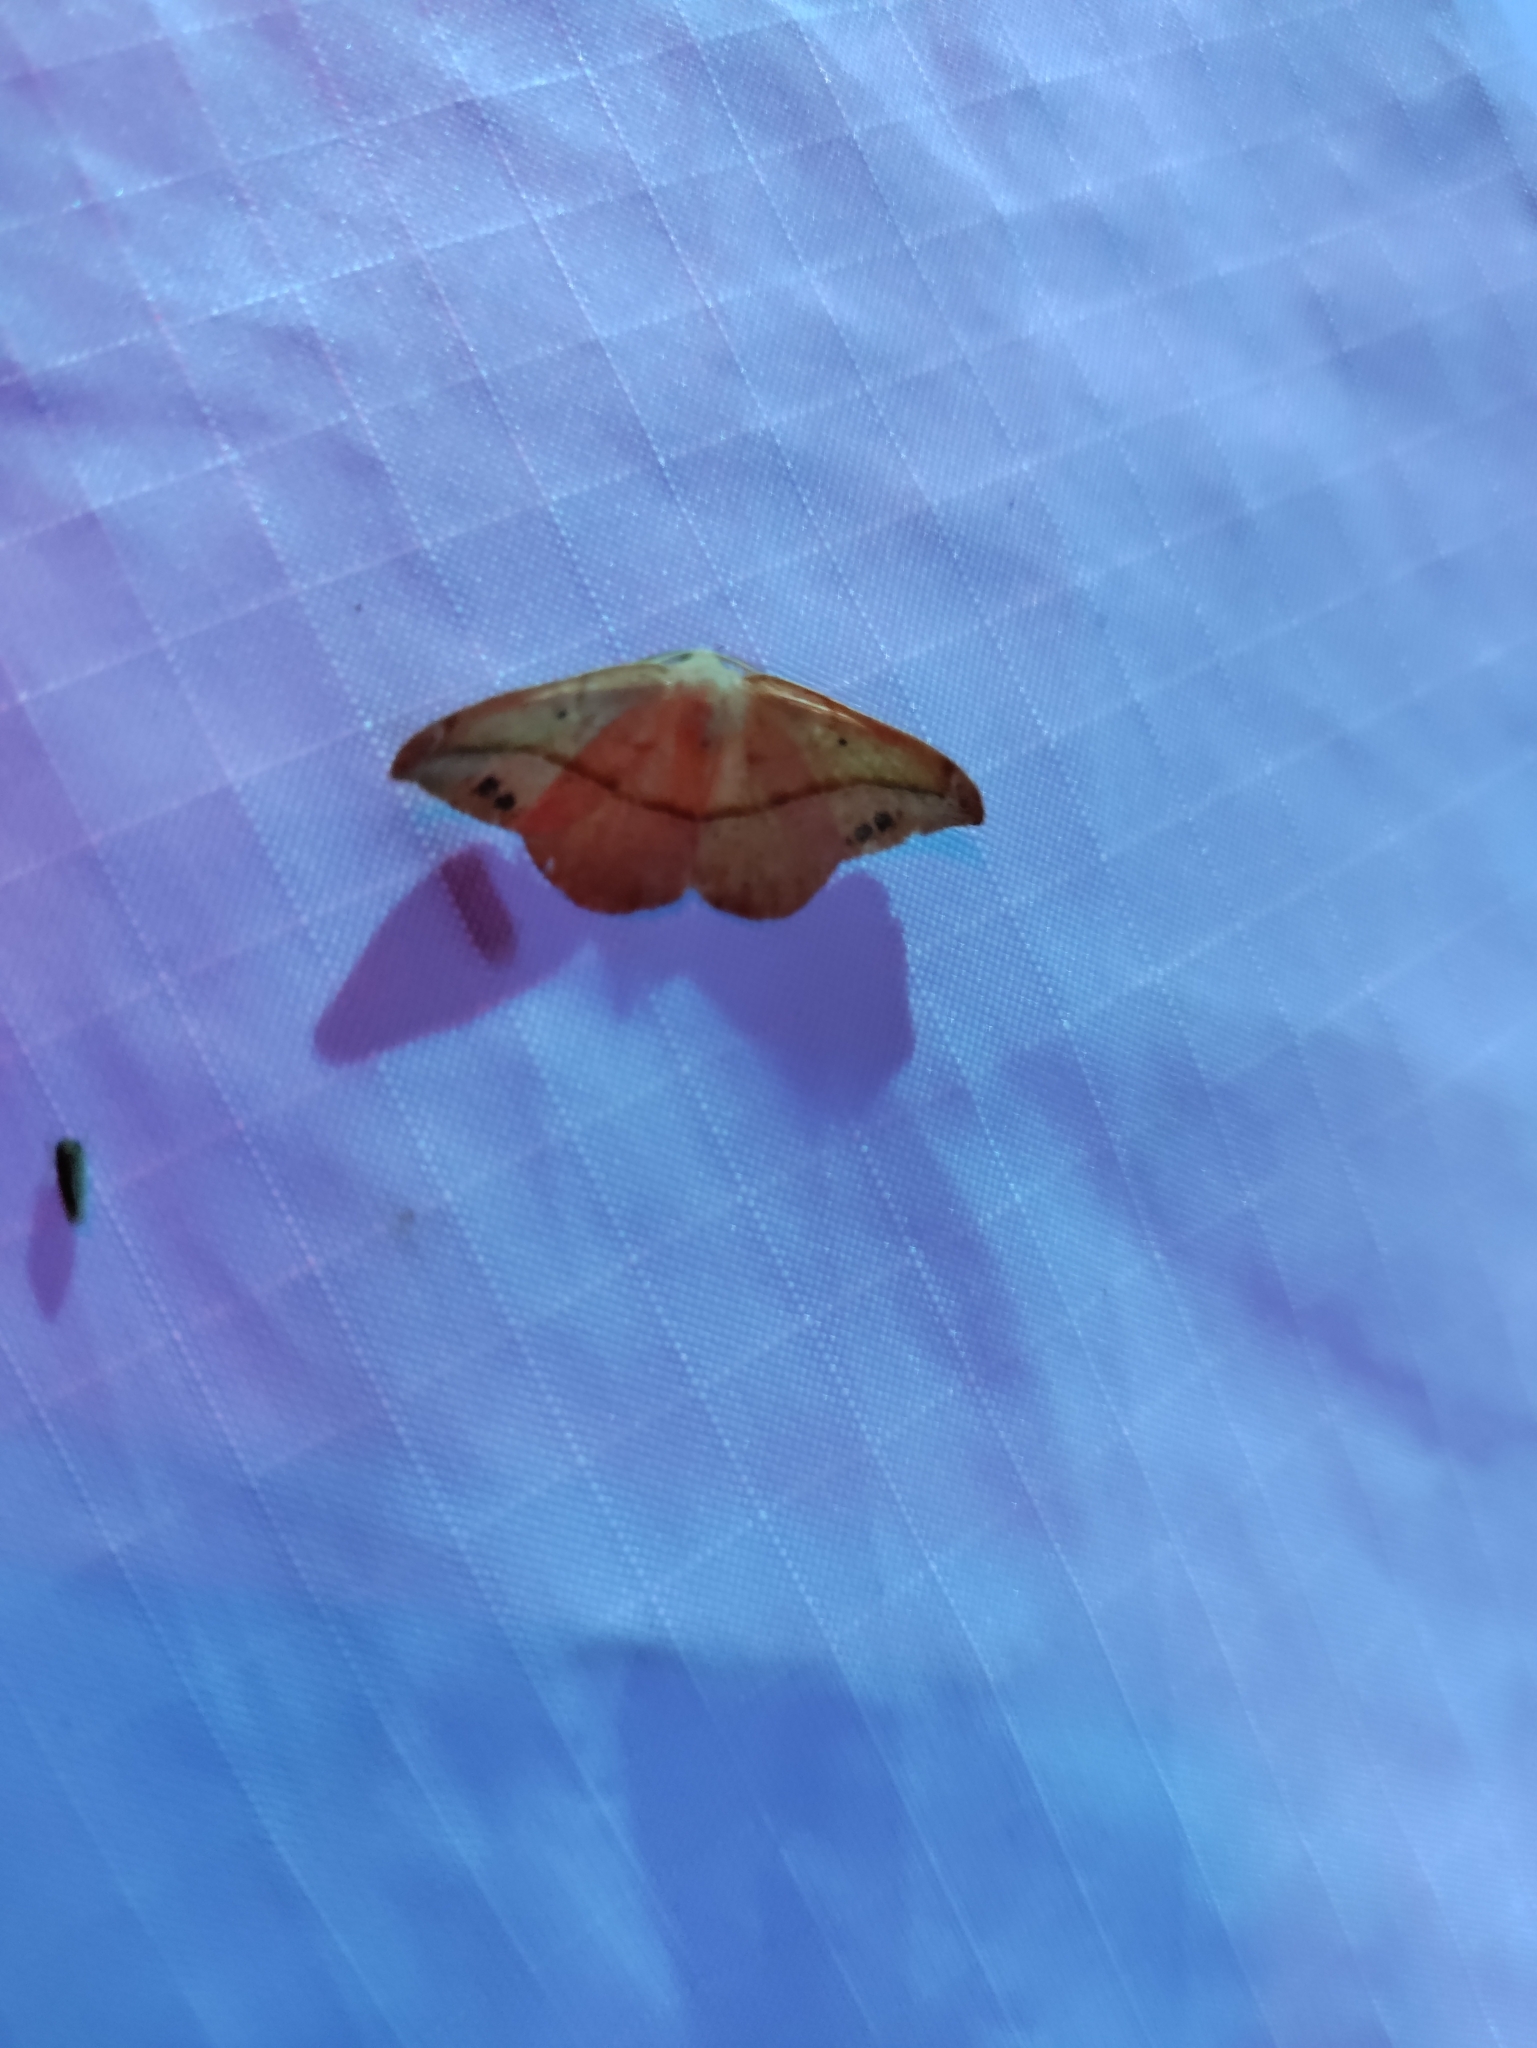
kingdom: Animalia
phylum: Arthropoda
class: Insecta
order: Lepidoptera
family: Geometridae
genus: Patalene
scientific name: Patalene olyzonaria
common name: Juniper geometer moth
